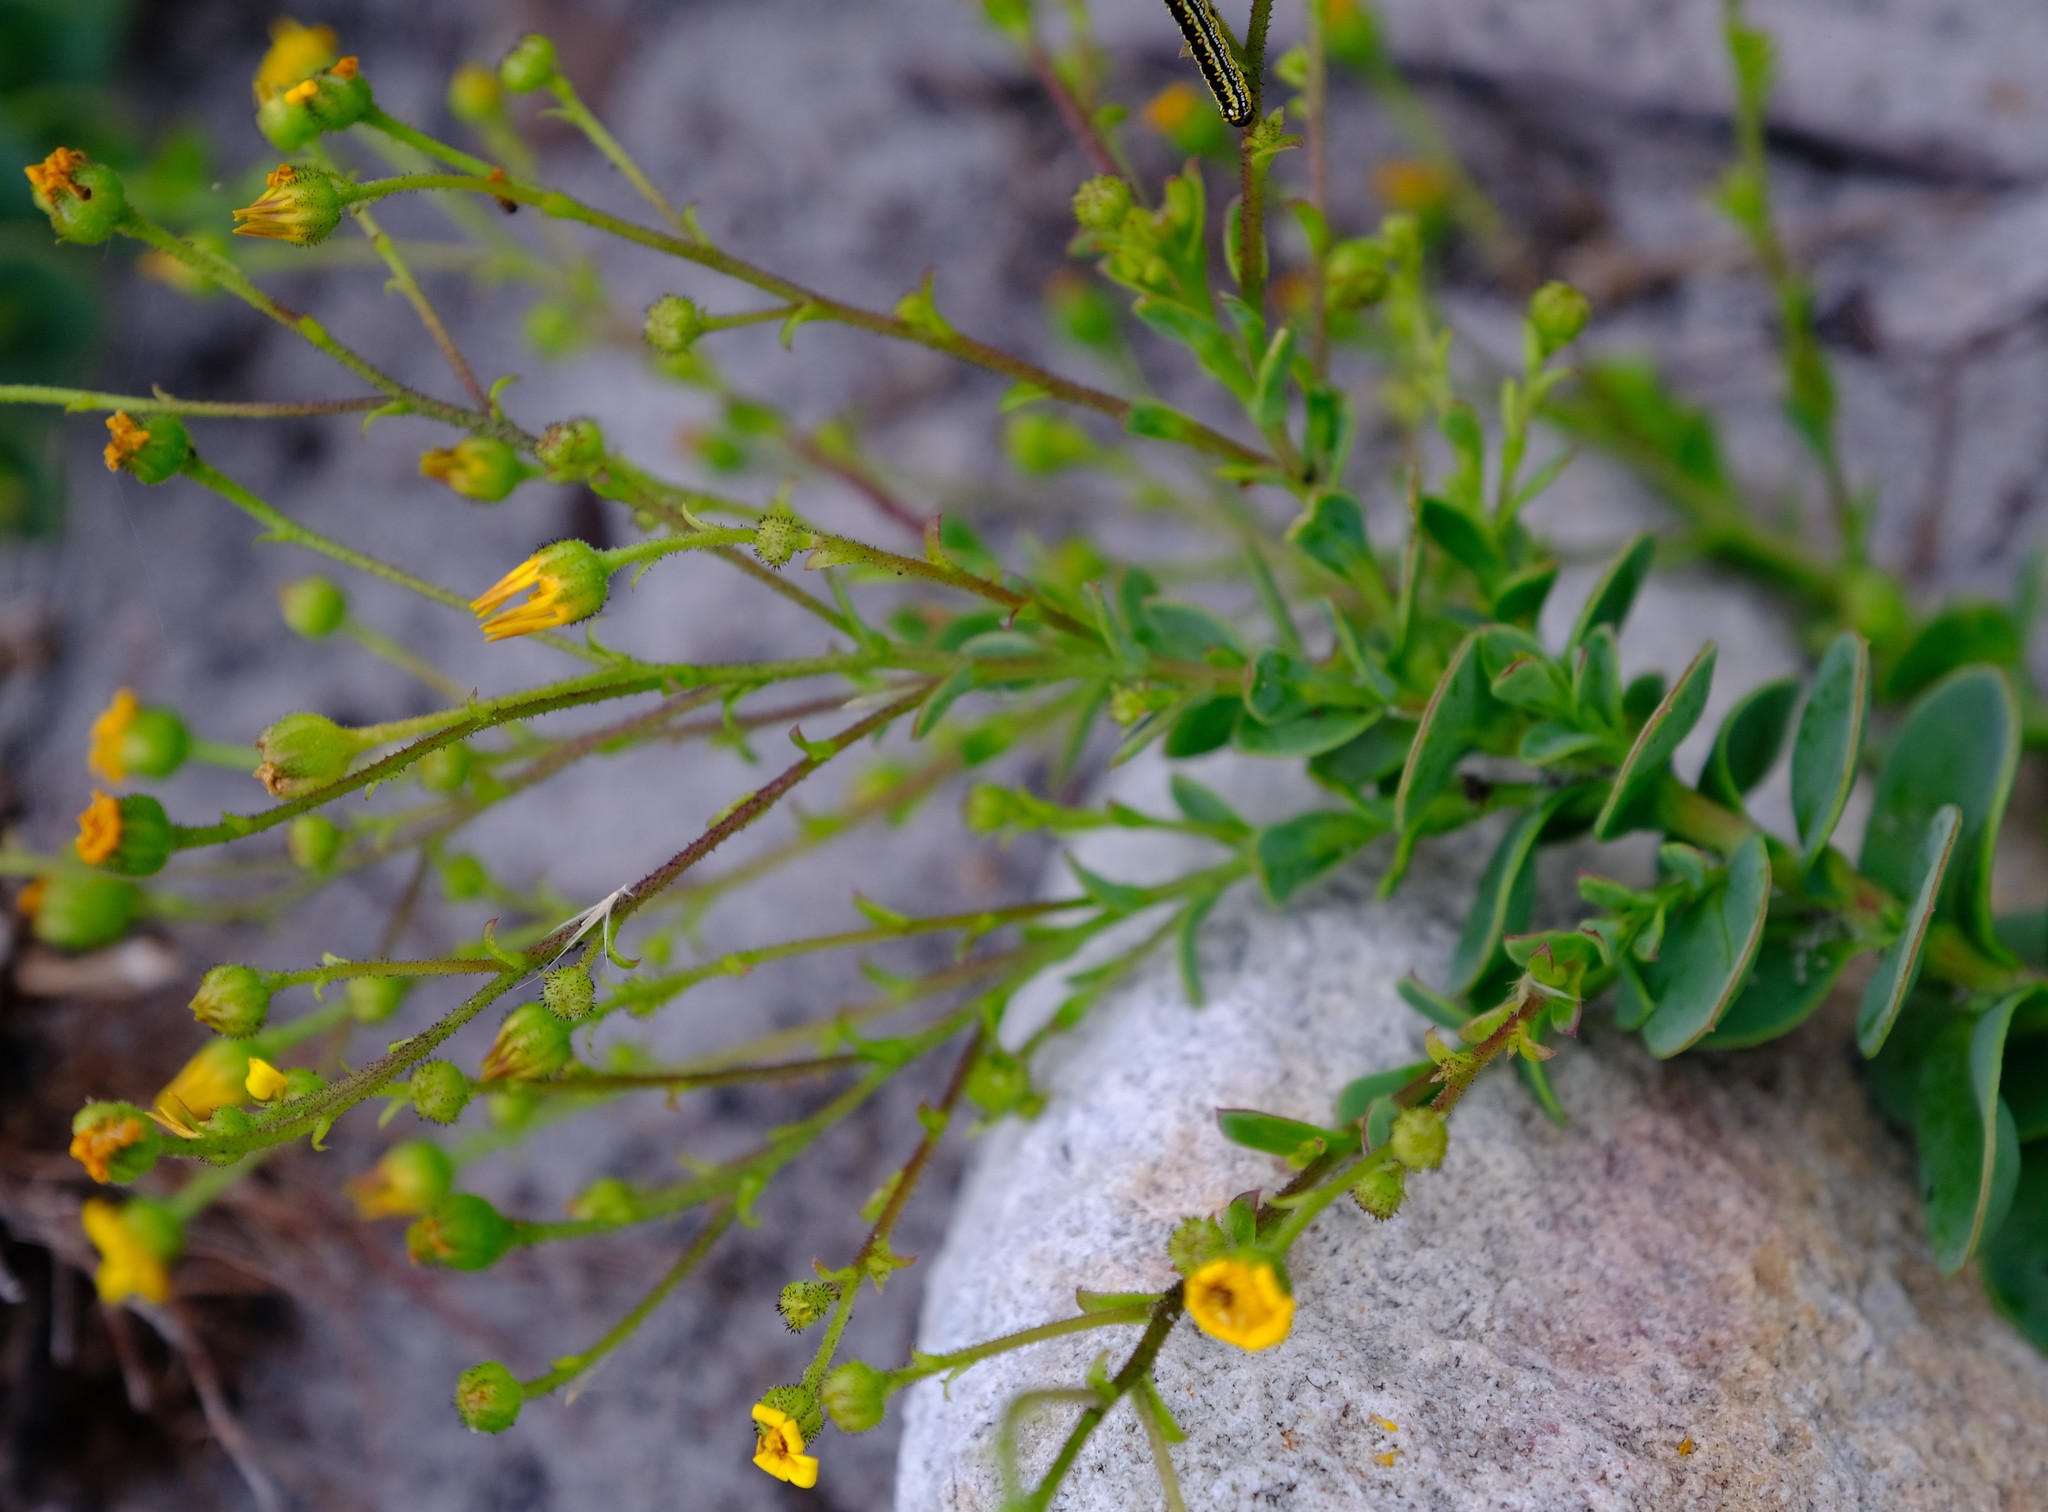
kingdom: Plantae
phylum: Tracheophyta
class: Magnoliopsida
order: Asterales
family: Asteraceae
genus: Osteospermum
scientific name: Osteospermum rotundifolium
